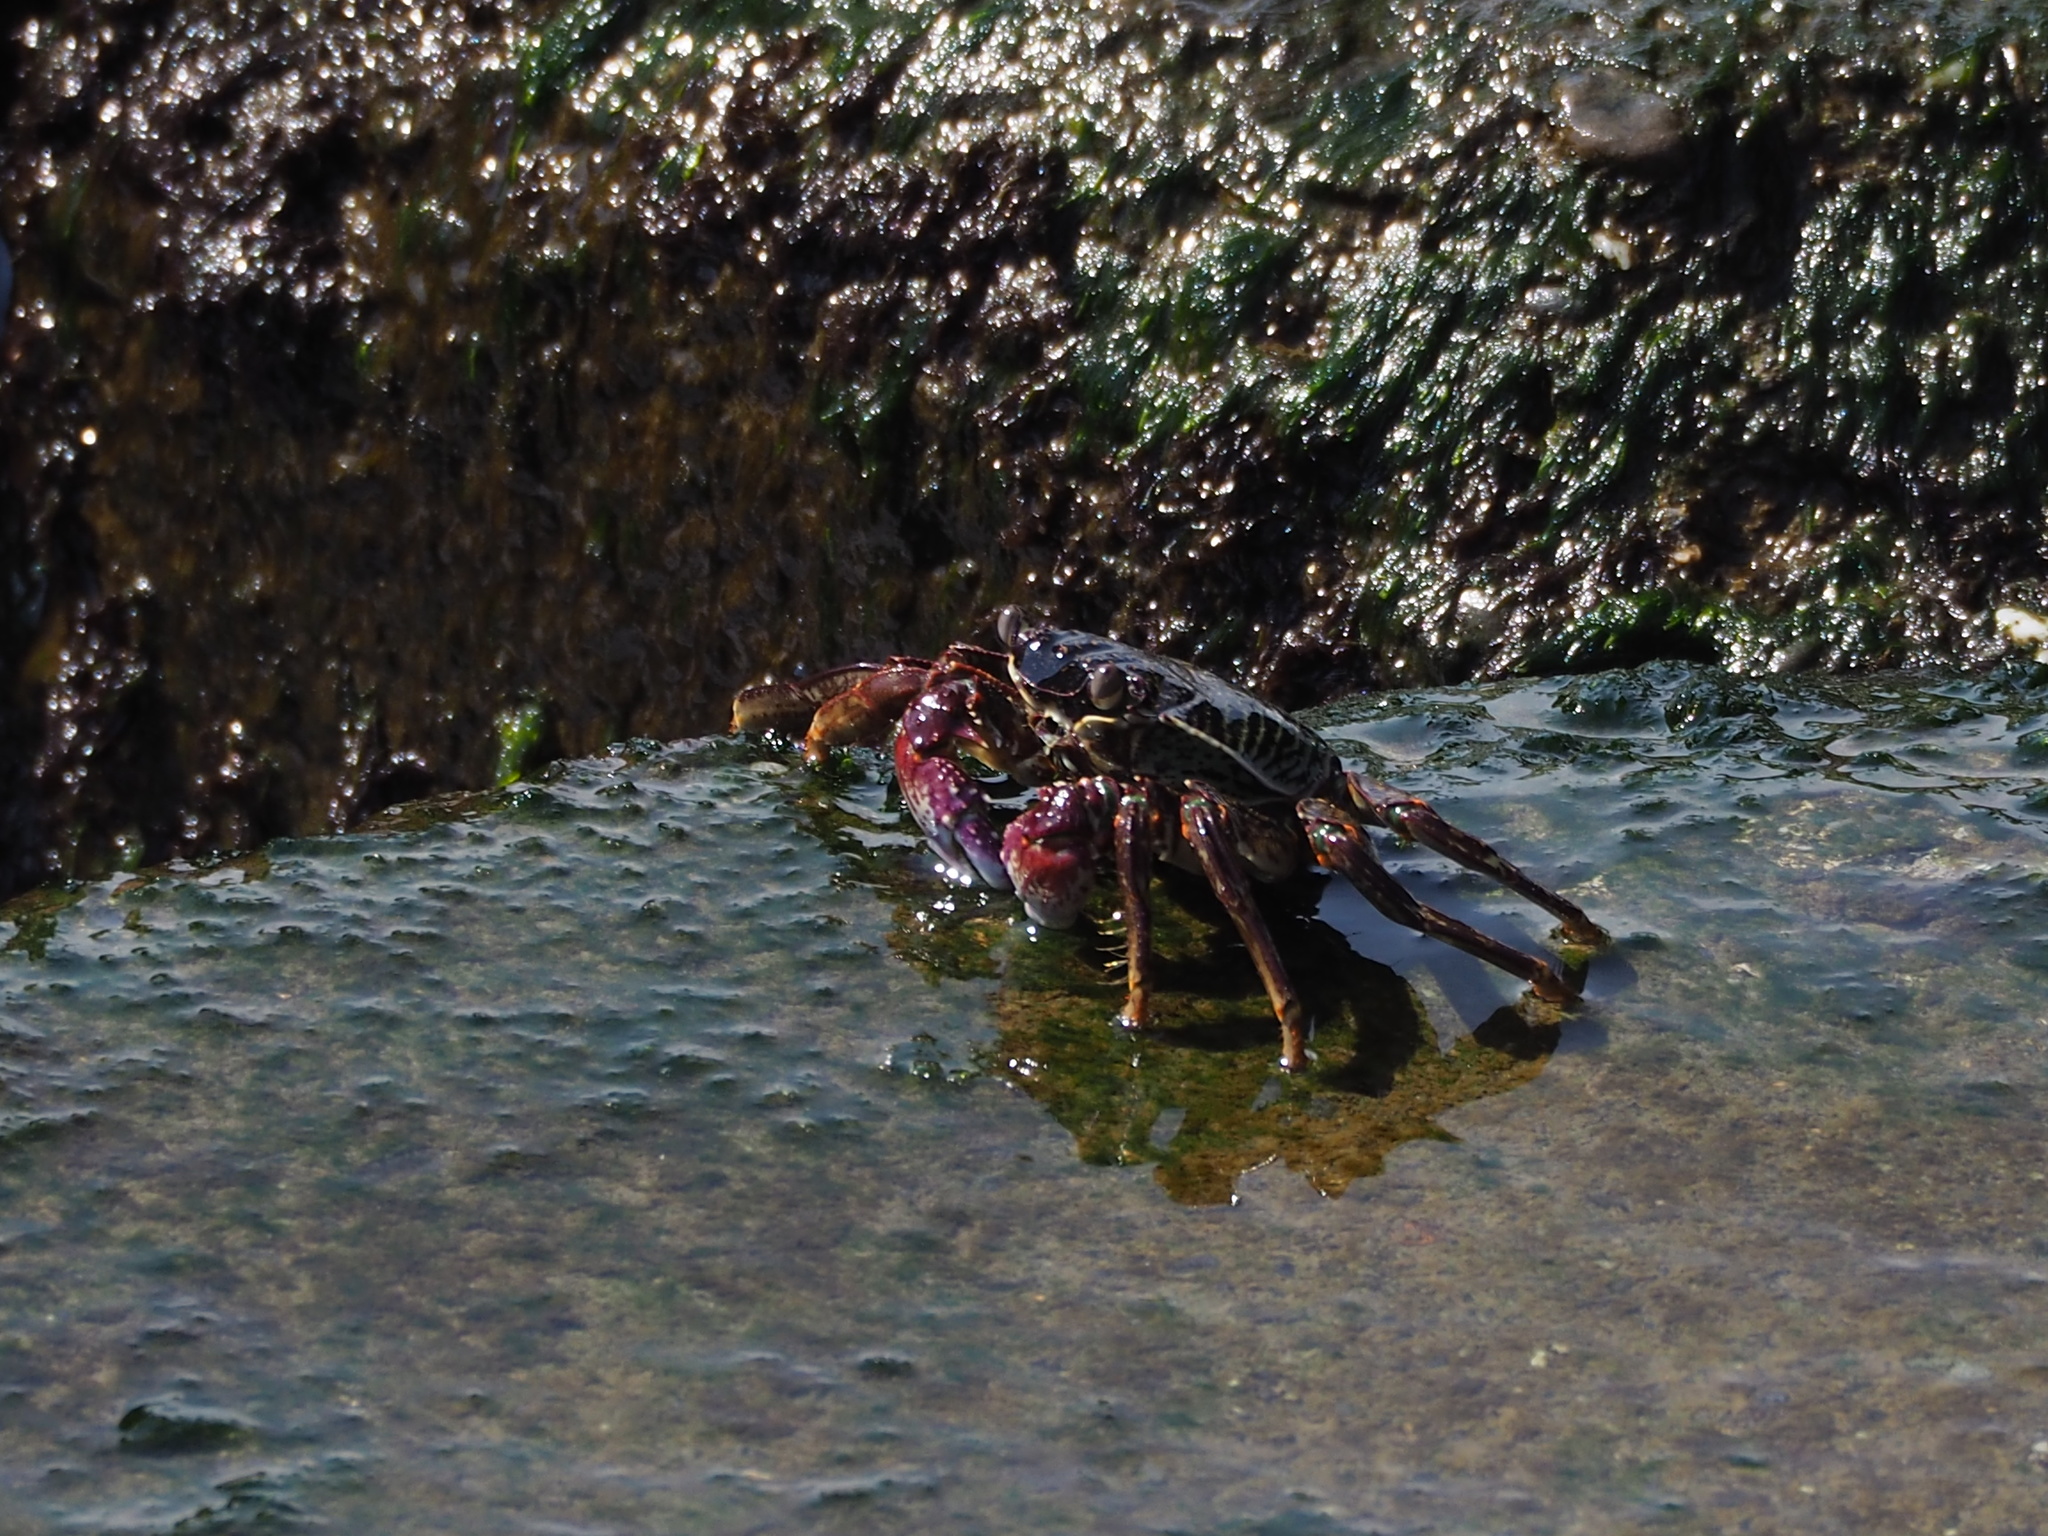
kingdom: Animalia
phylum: Arthropoda
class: Malacostraca
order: Decapoda
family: Grapsidae
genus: Grapsus
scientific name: Grapsus albolineatus
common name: Mottled lightfoot crab
